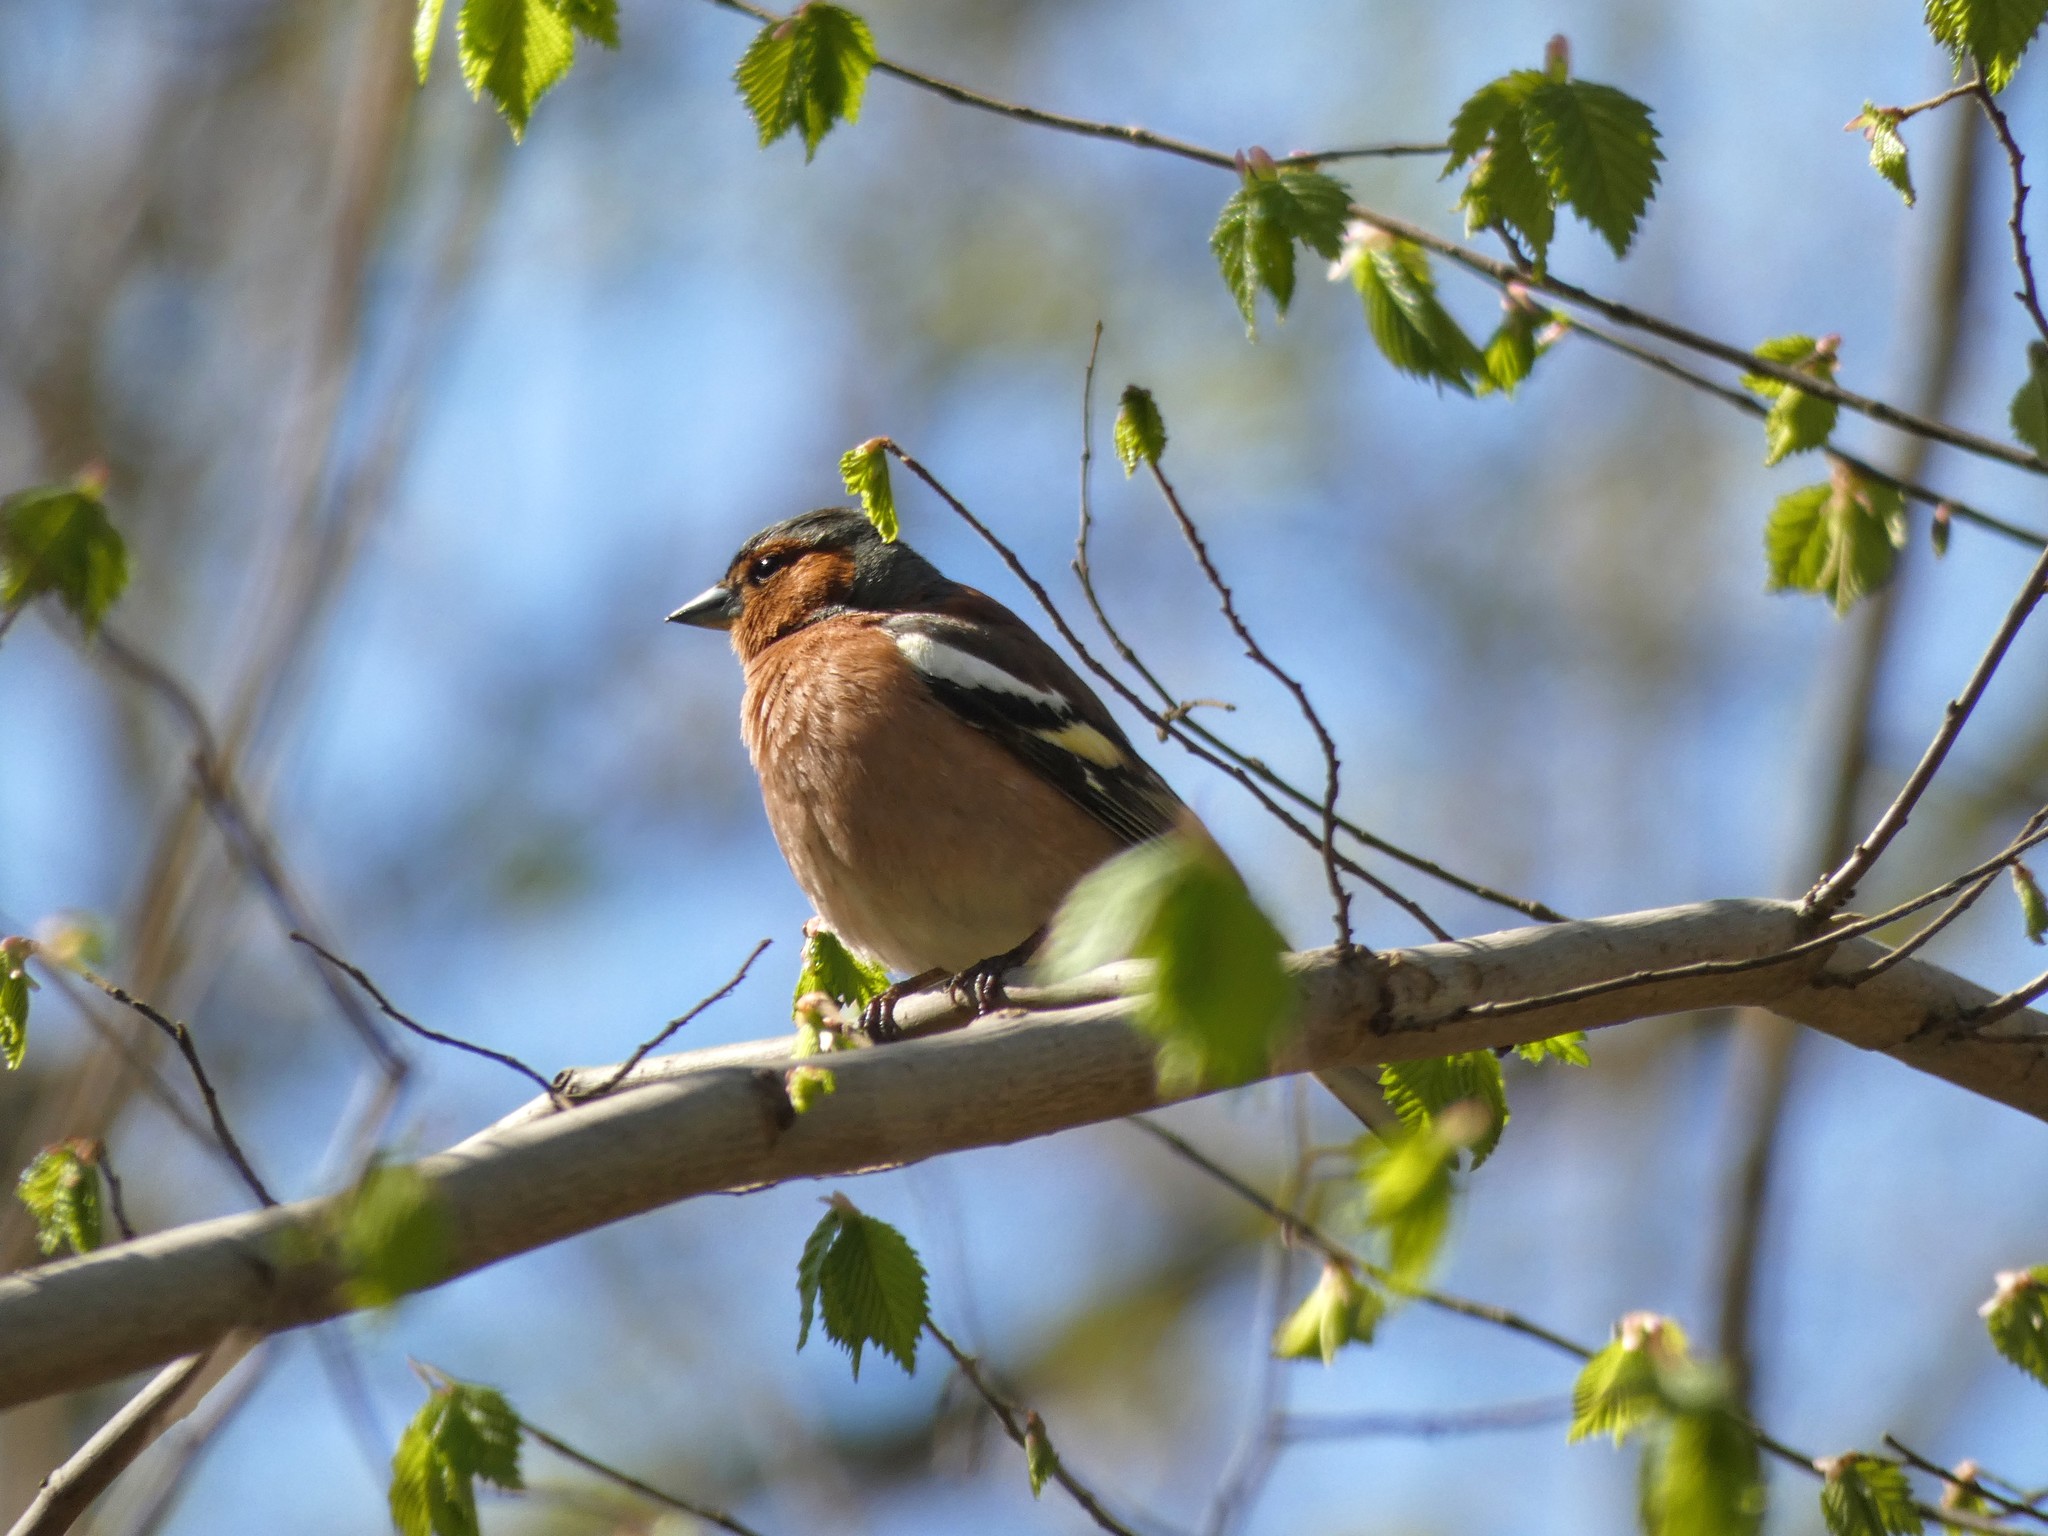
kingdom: Animalia
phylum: Chordata
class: Aves
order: Passeriformes
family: Fringillidae
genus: Fringilla
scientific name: Fringilla coelebs
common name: Common chaffinch
